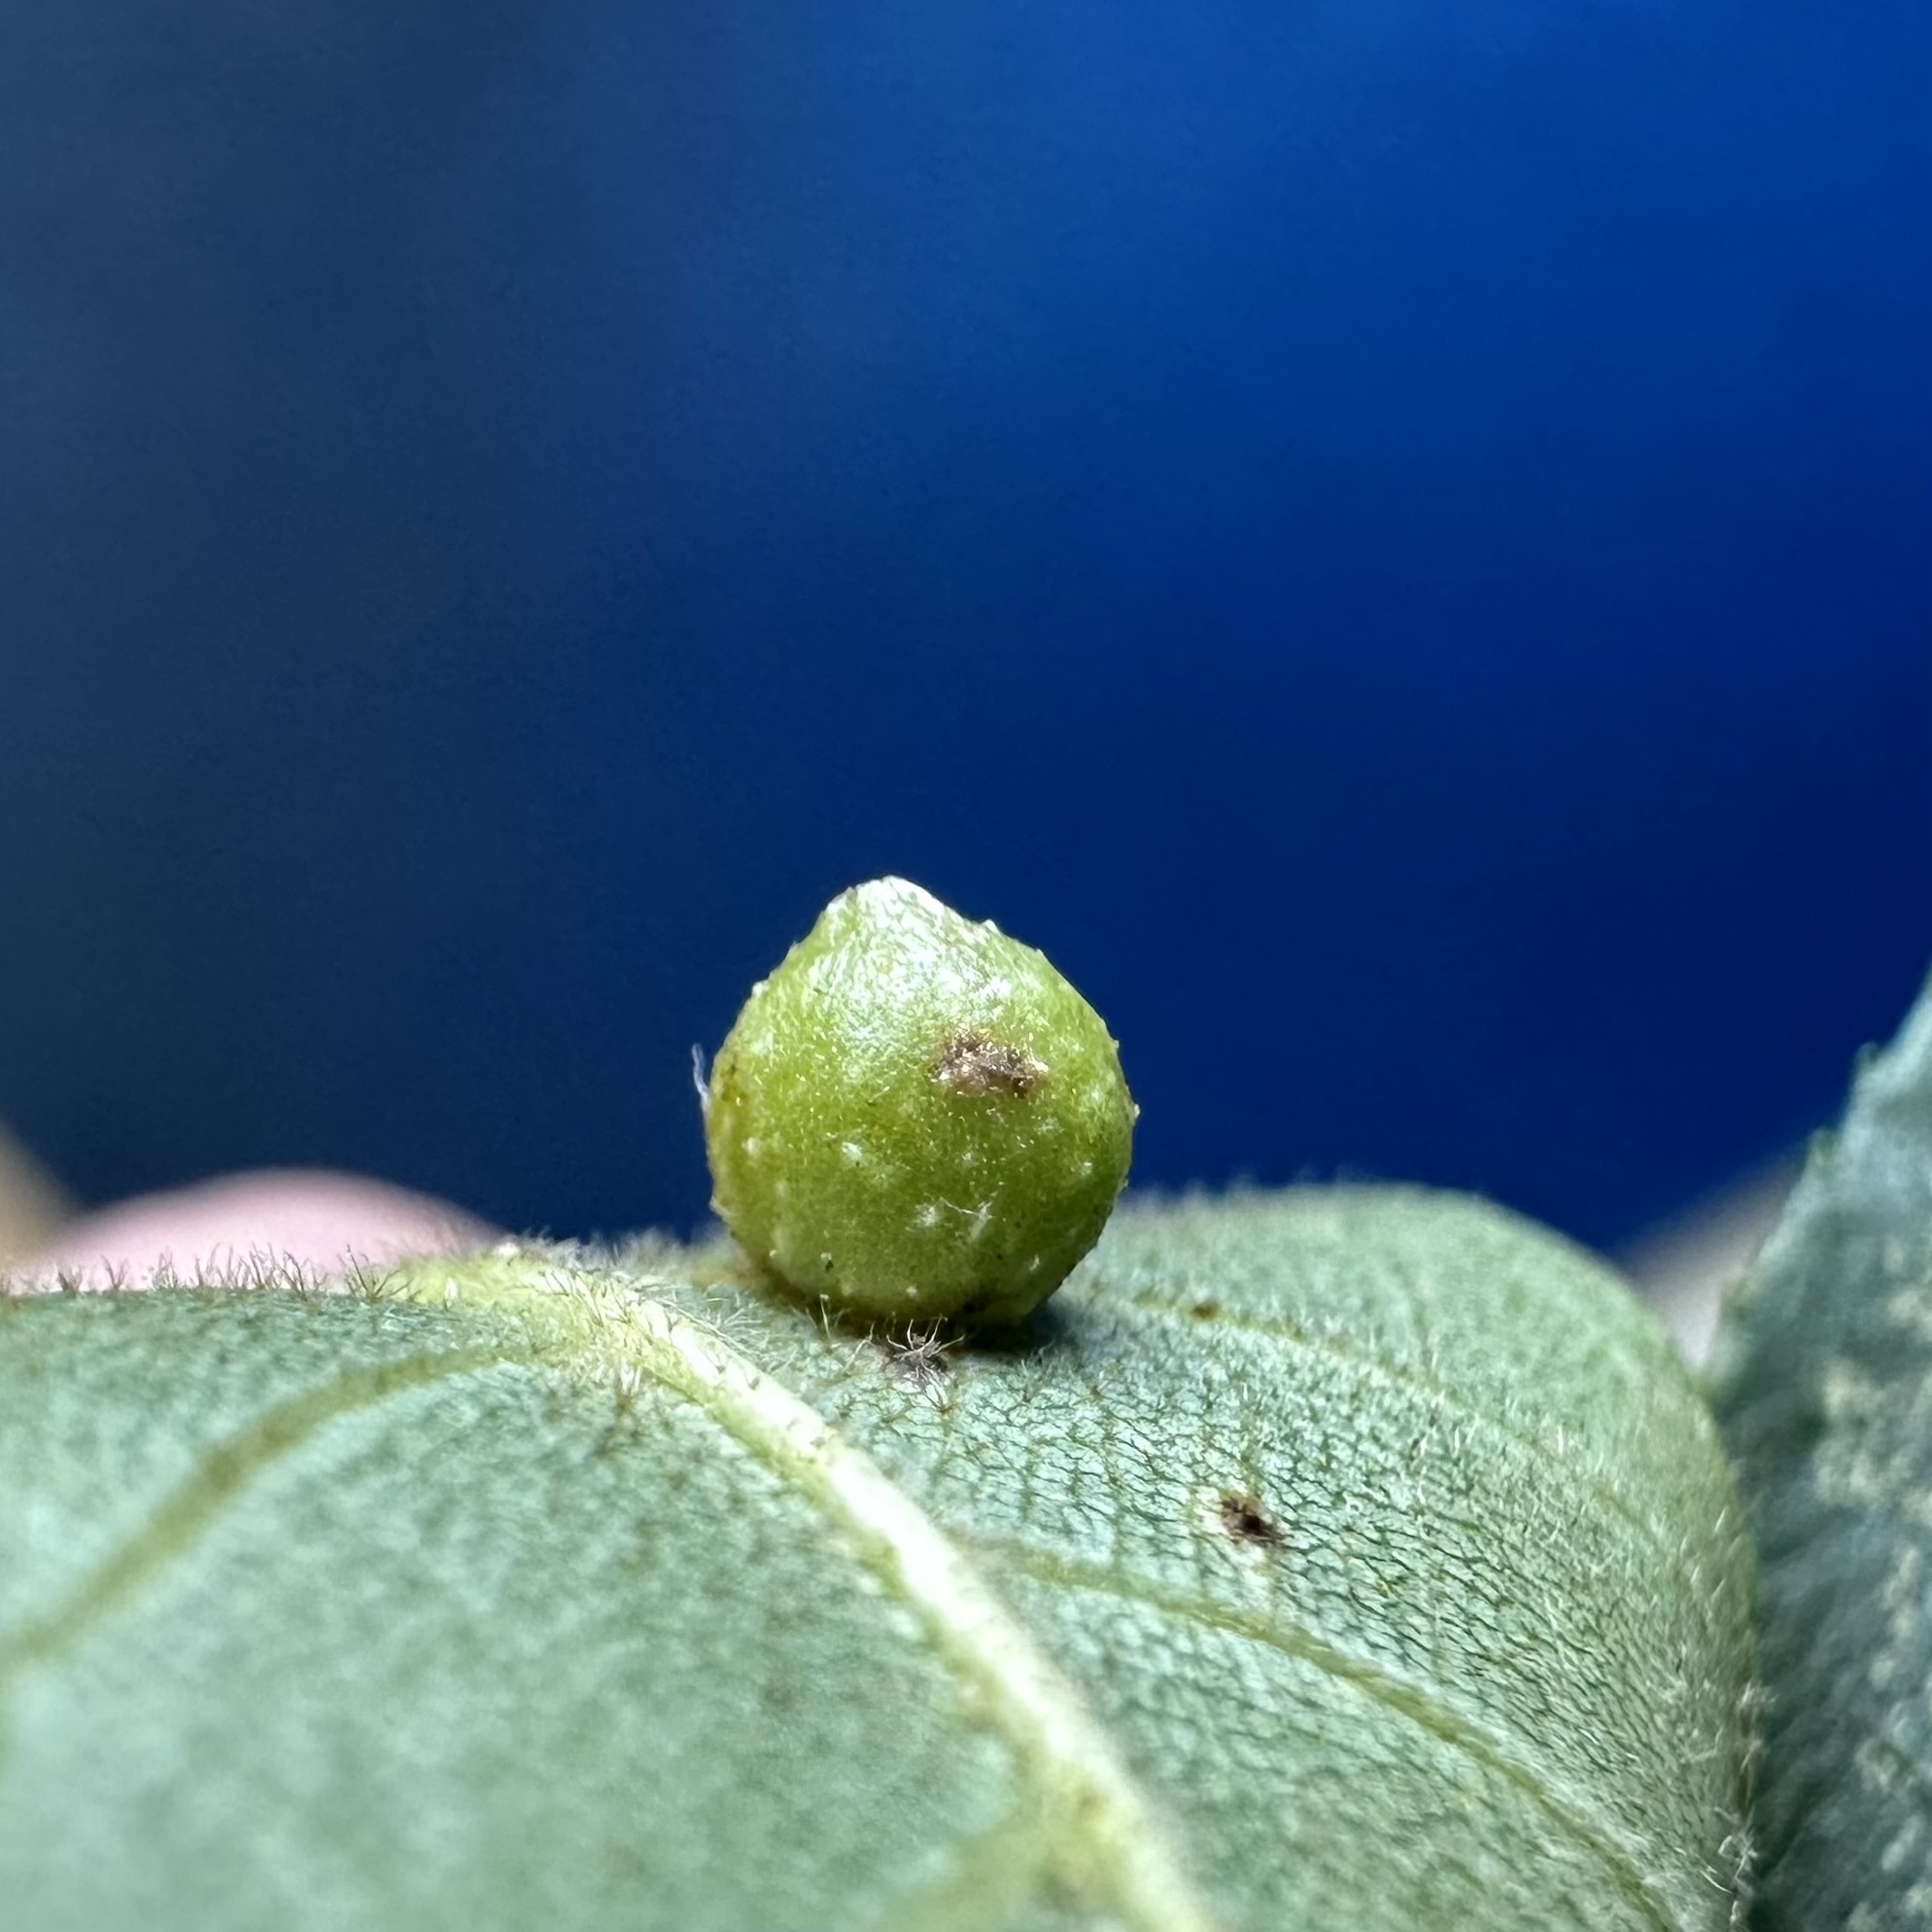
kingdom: Animalia
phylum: Arthropoda
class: Insecta
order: Diptera
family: Cecidomyiidae
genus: Caryomyia
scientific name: Caryomyia tuberculata
